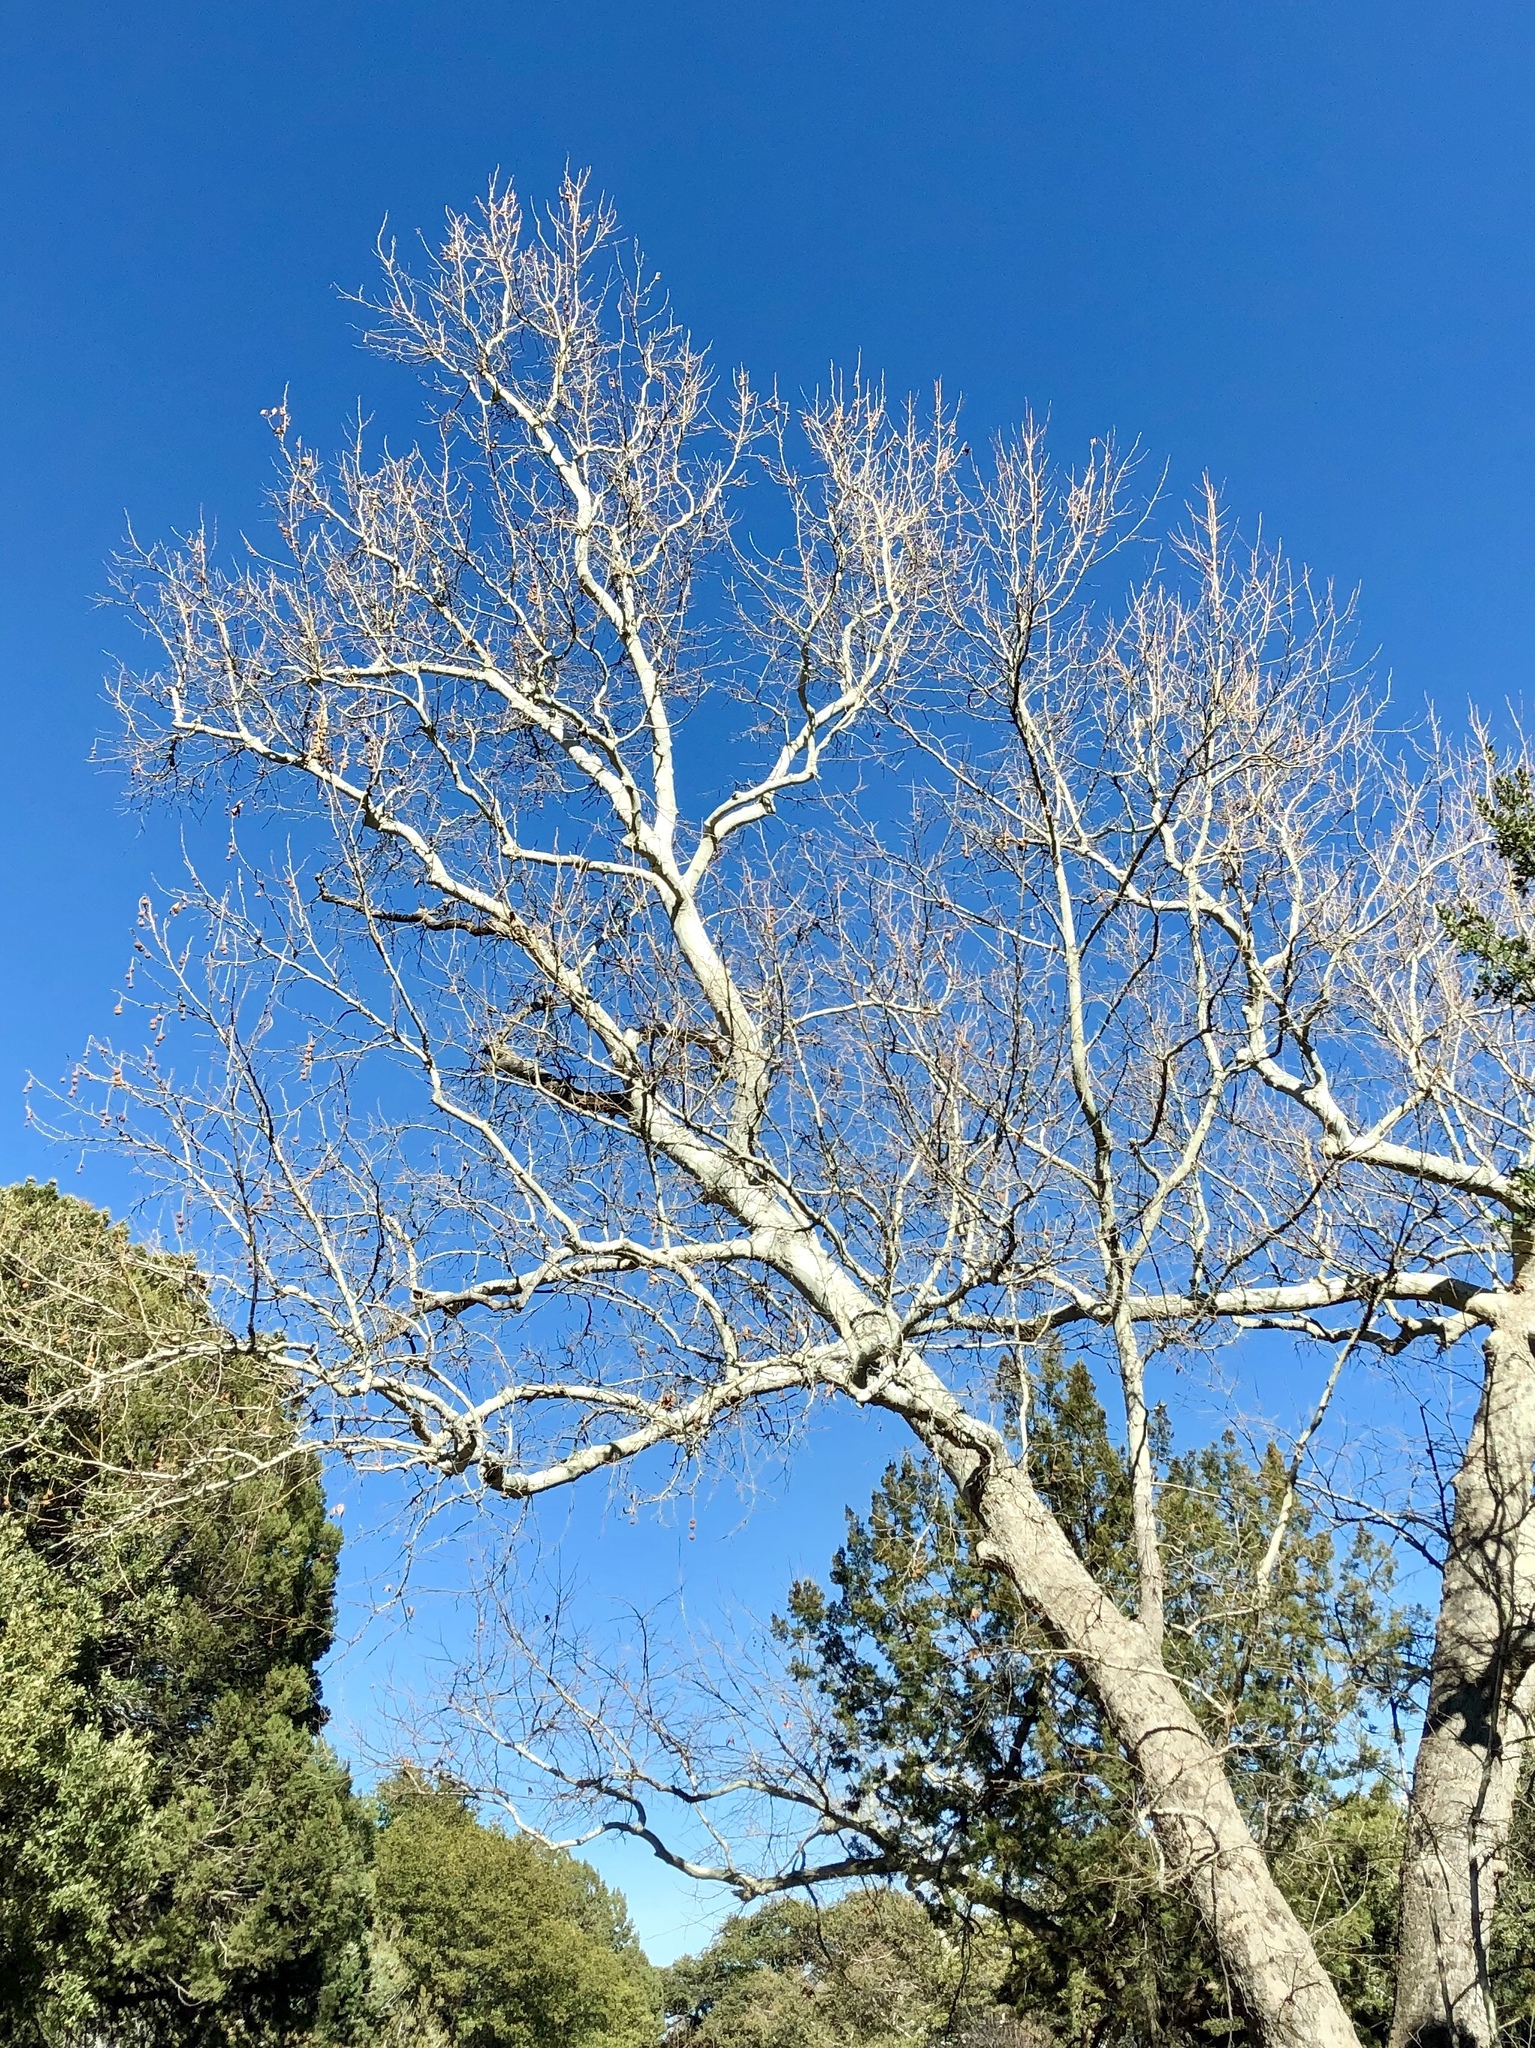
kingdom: Plantae
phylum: Tracheophyta
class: Magnoliopsida
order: Proteales
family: Platanaceae
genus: Platanus
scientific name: Platanus wrightii
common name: Arizona sycamore
